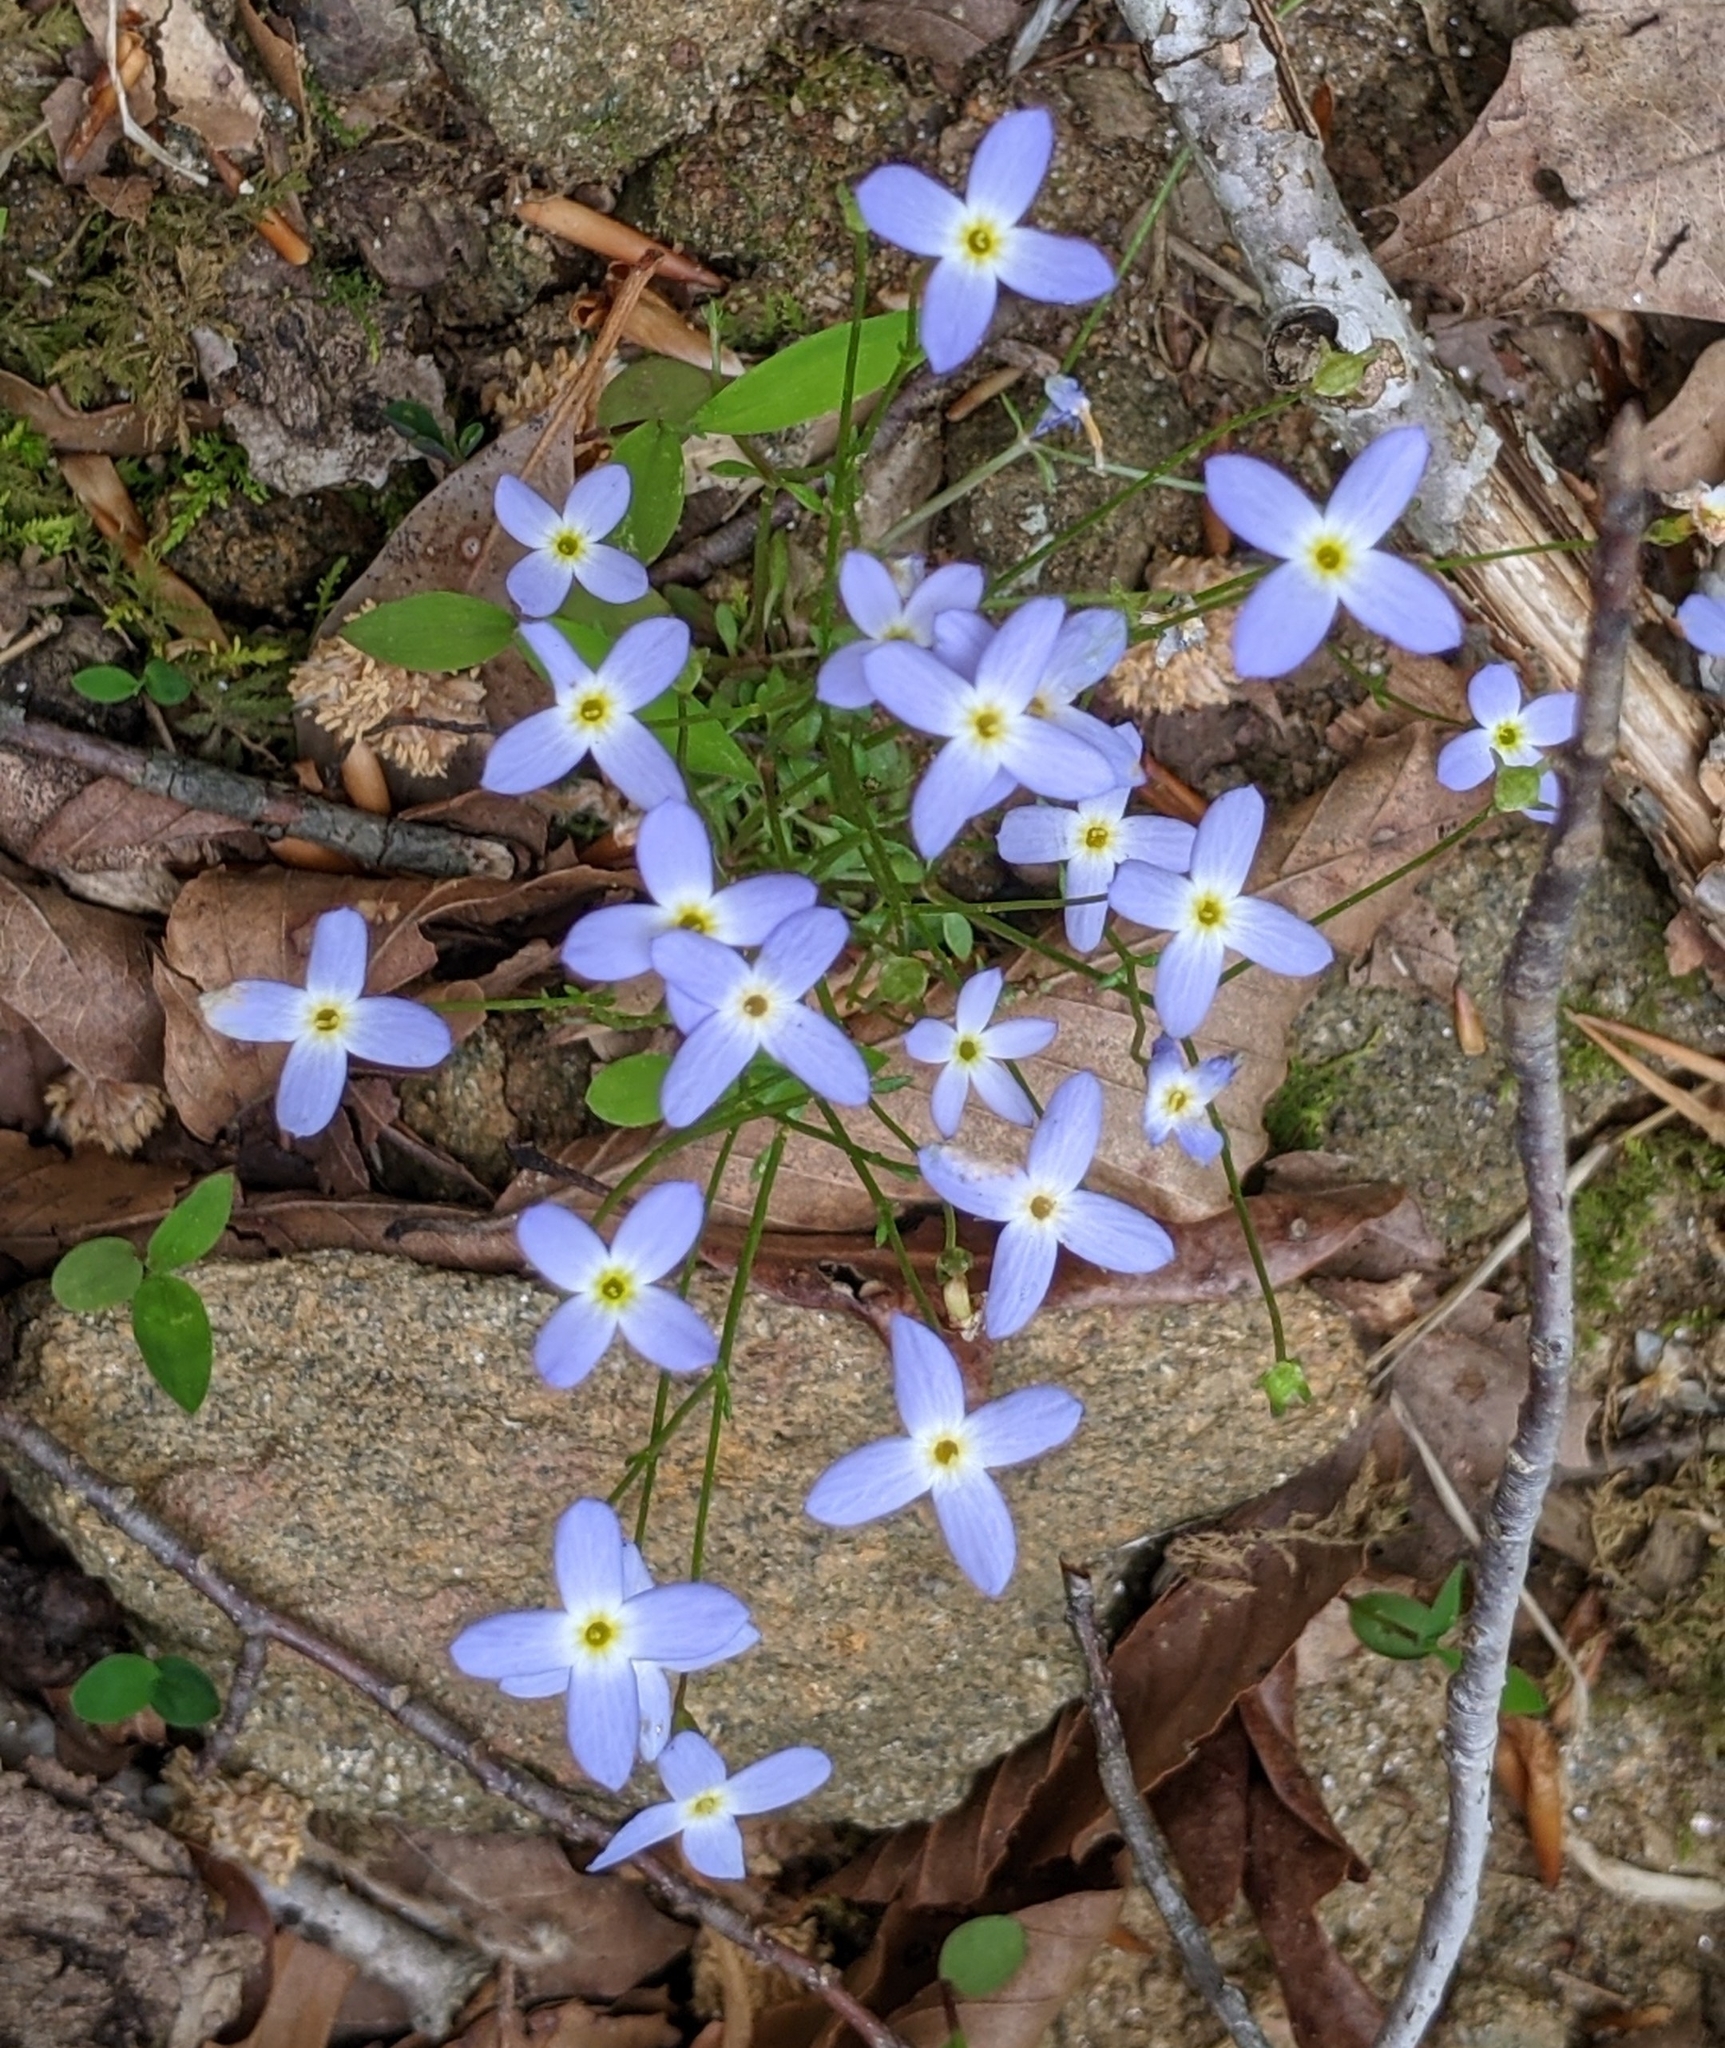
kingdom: Plantae
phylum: Tracheophyta
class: Magnoliopsida
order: Gentianales
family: Rubiaceae
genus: Houstonia
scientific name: Houstonia caerulea
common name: Bluets
